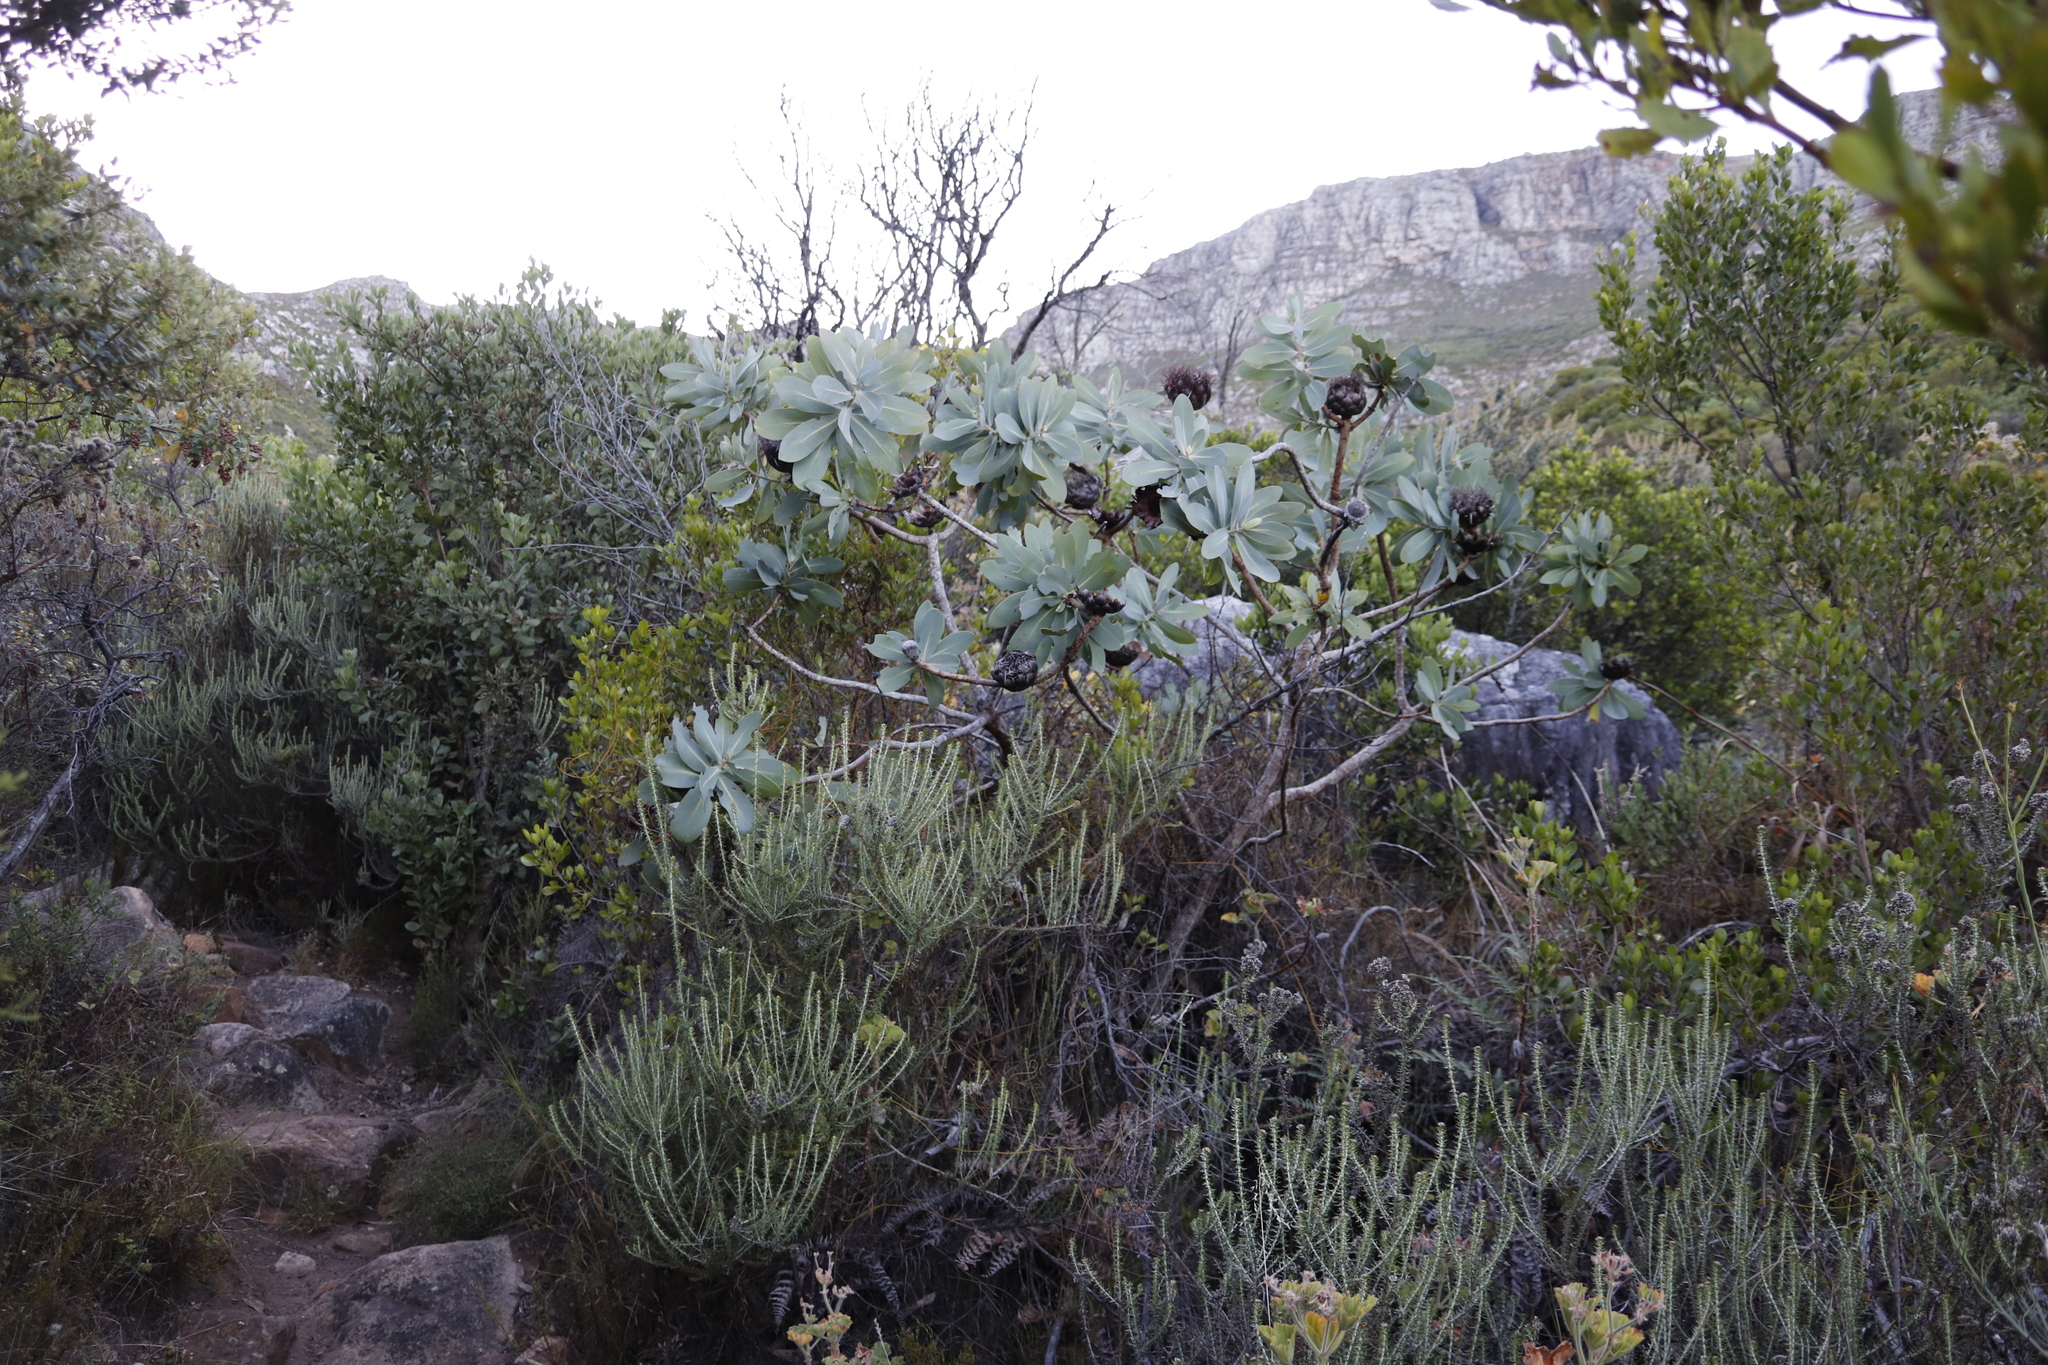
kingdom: Plantae
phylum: Tracheophyta
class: Magnoliopsida
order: Proteales
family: Proteaceae
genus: Protea
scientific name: Protea nitida
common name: Tree protea
